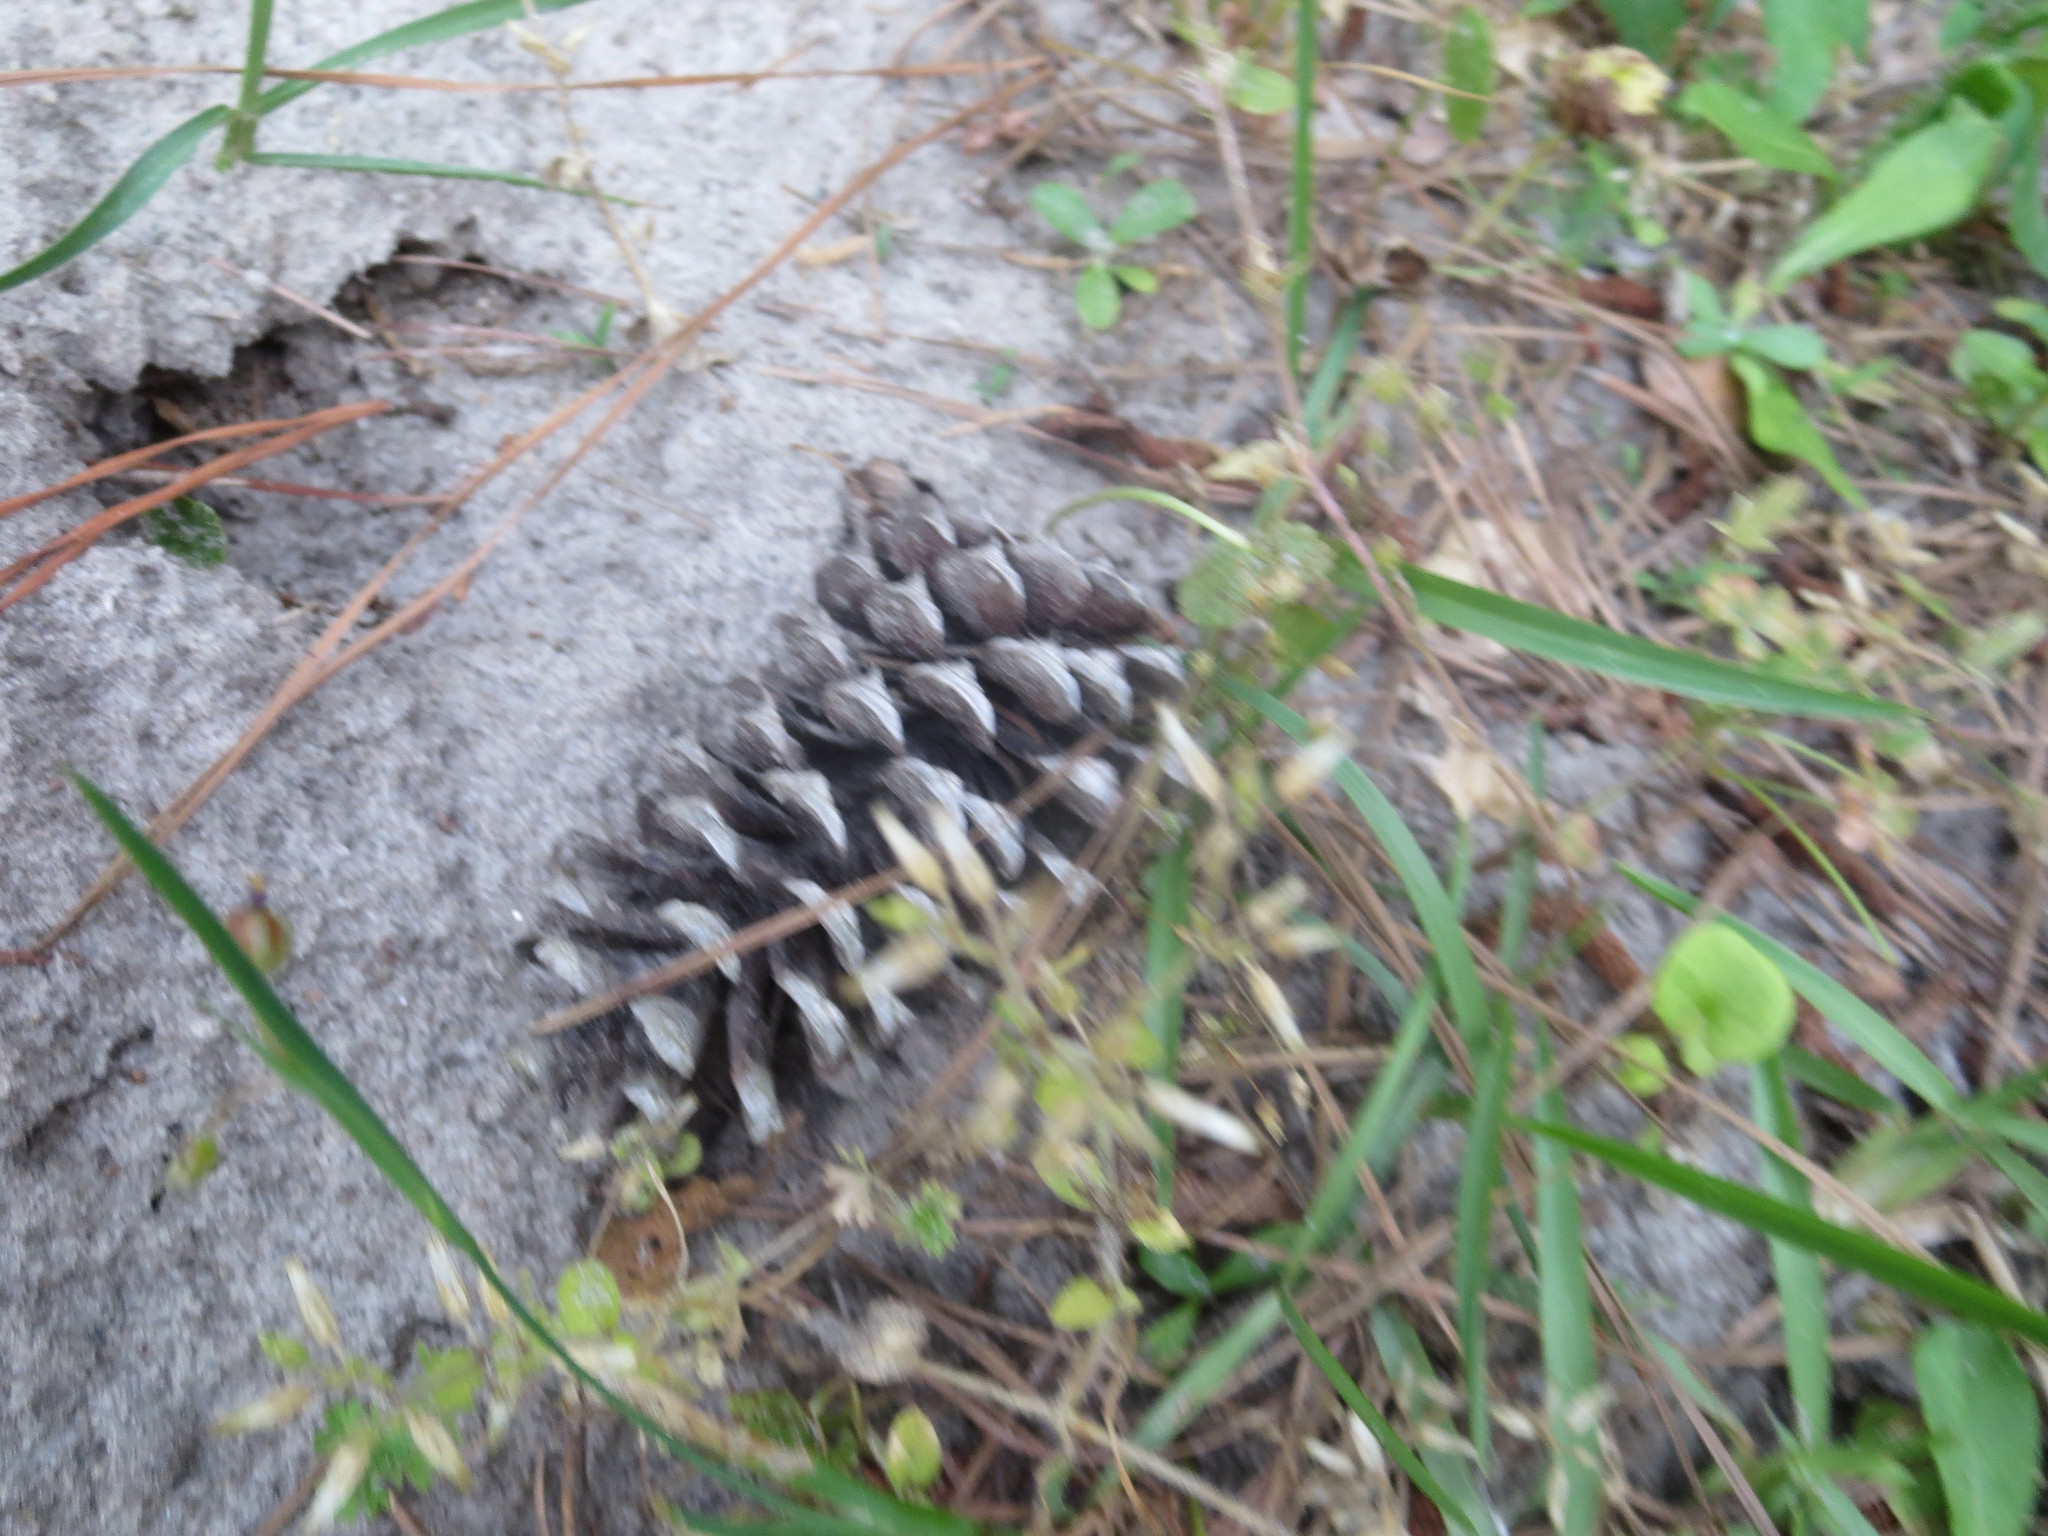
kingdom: Plantae
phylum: Tracheophyta
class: Pinopsida
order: Pinales
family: Pinaceae
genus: Pinus
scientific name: Pinus taeda
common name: Loblolly pine
